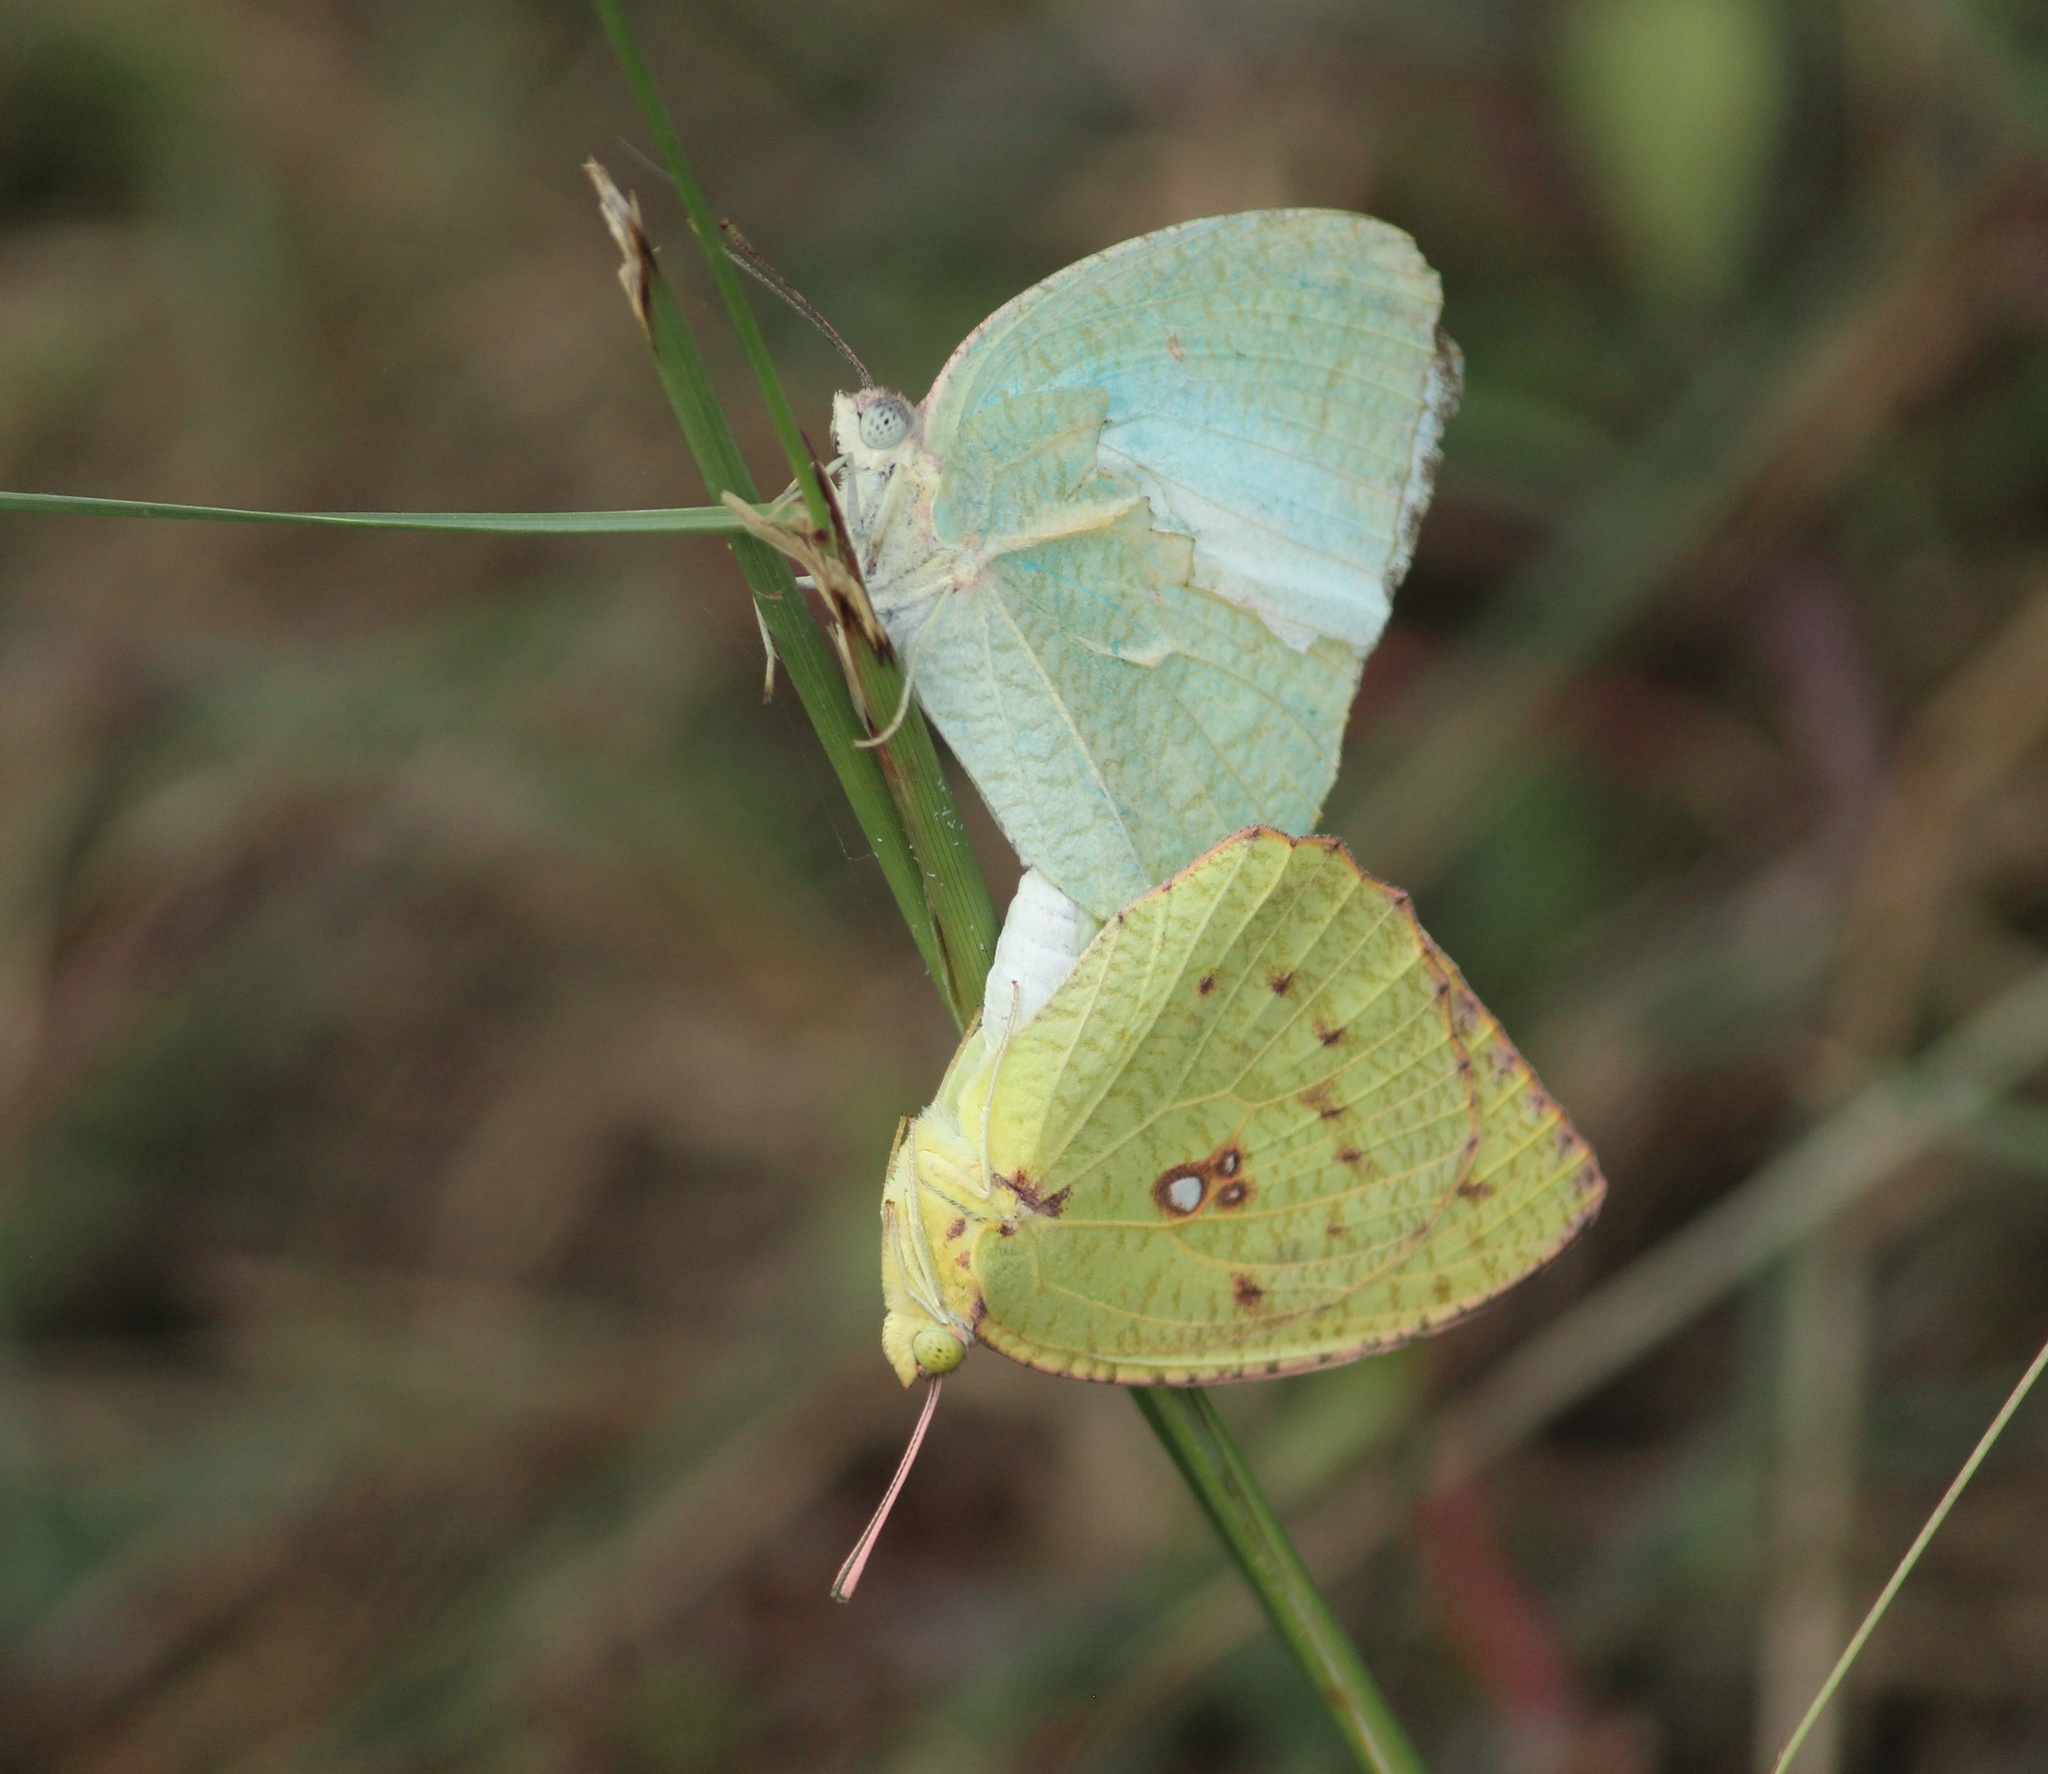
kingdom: Animalia
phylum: Arthropoda
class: Insecta
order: Lepidoptera
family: Pieridae
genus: Catopsilia
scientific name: Catopsilia pyranthe
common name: Mottled emigrant
